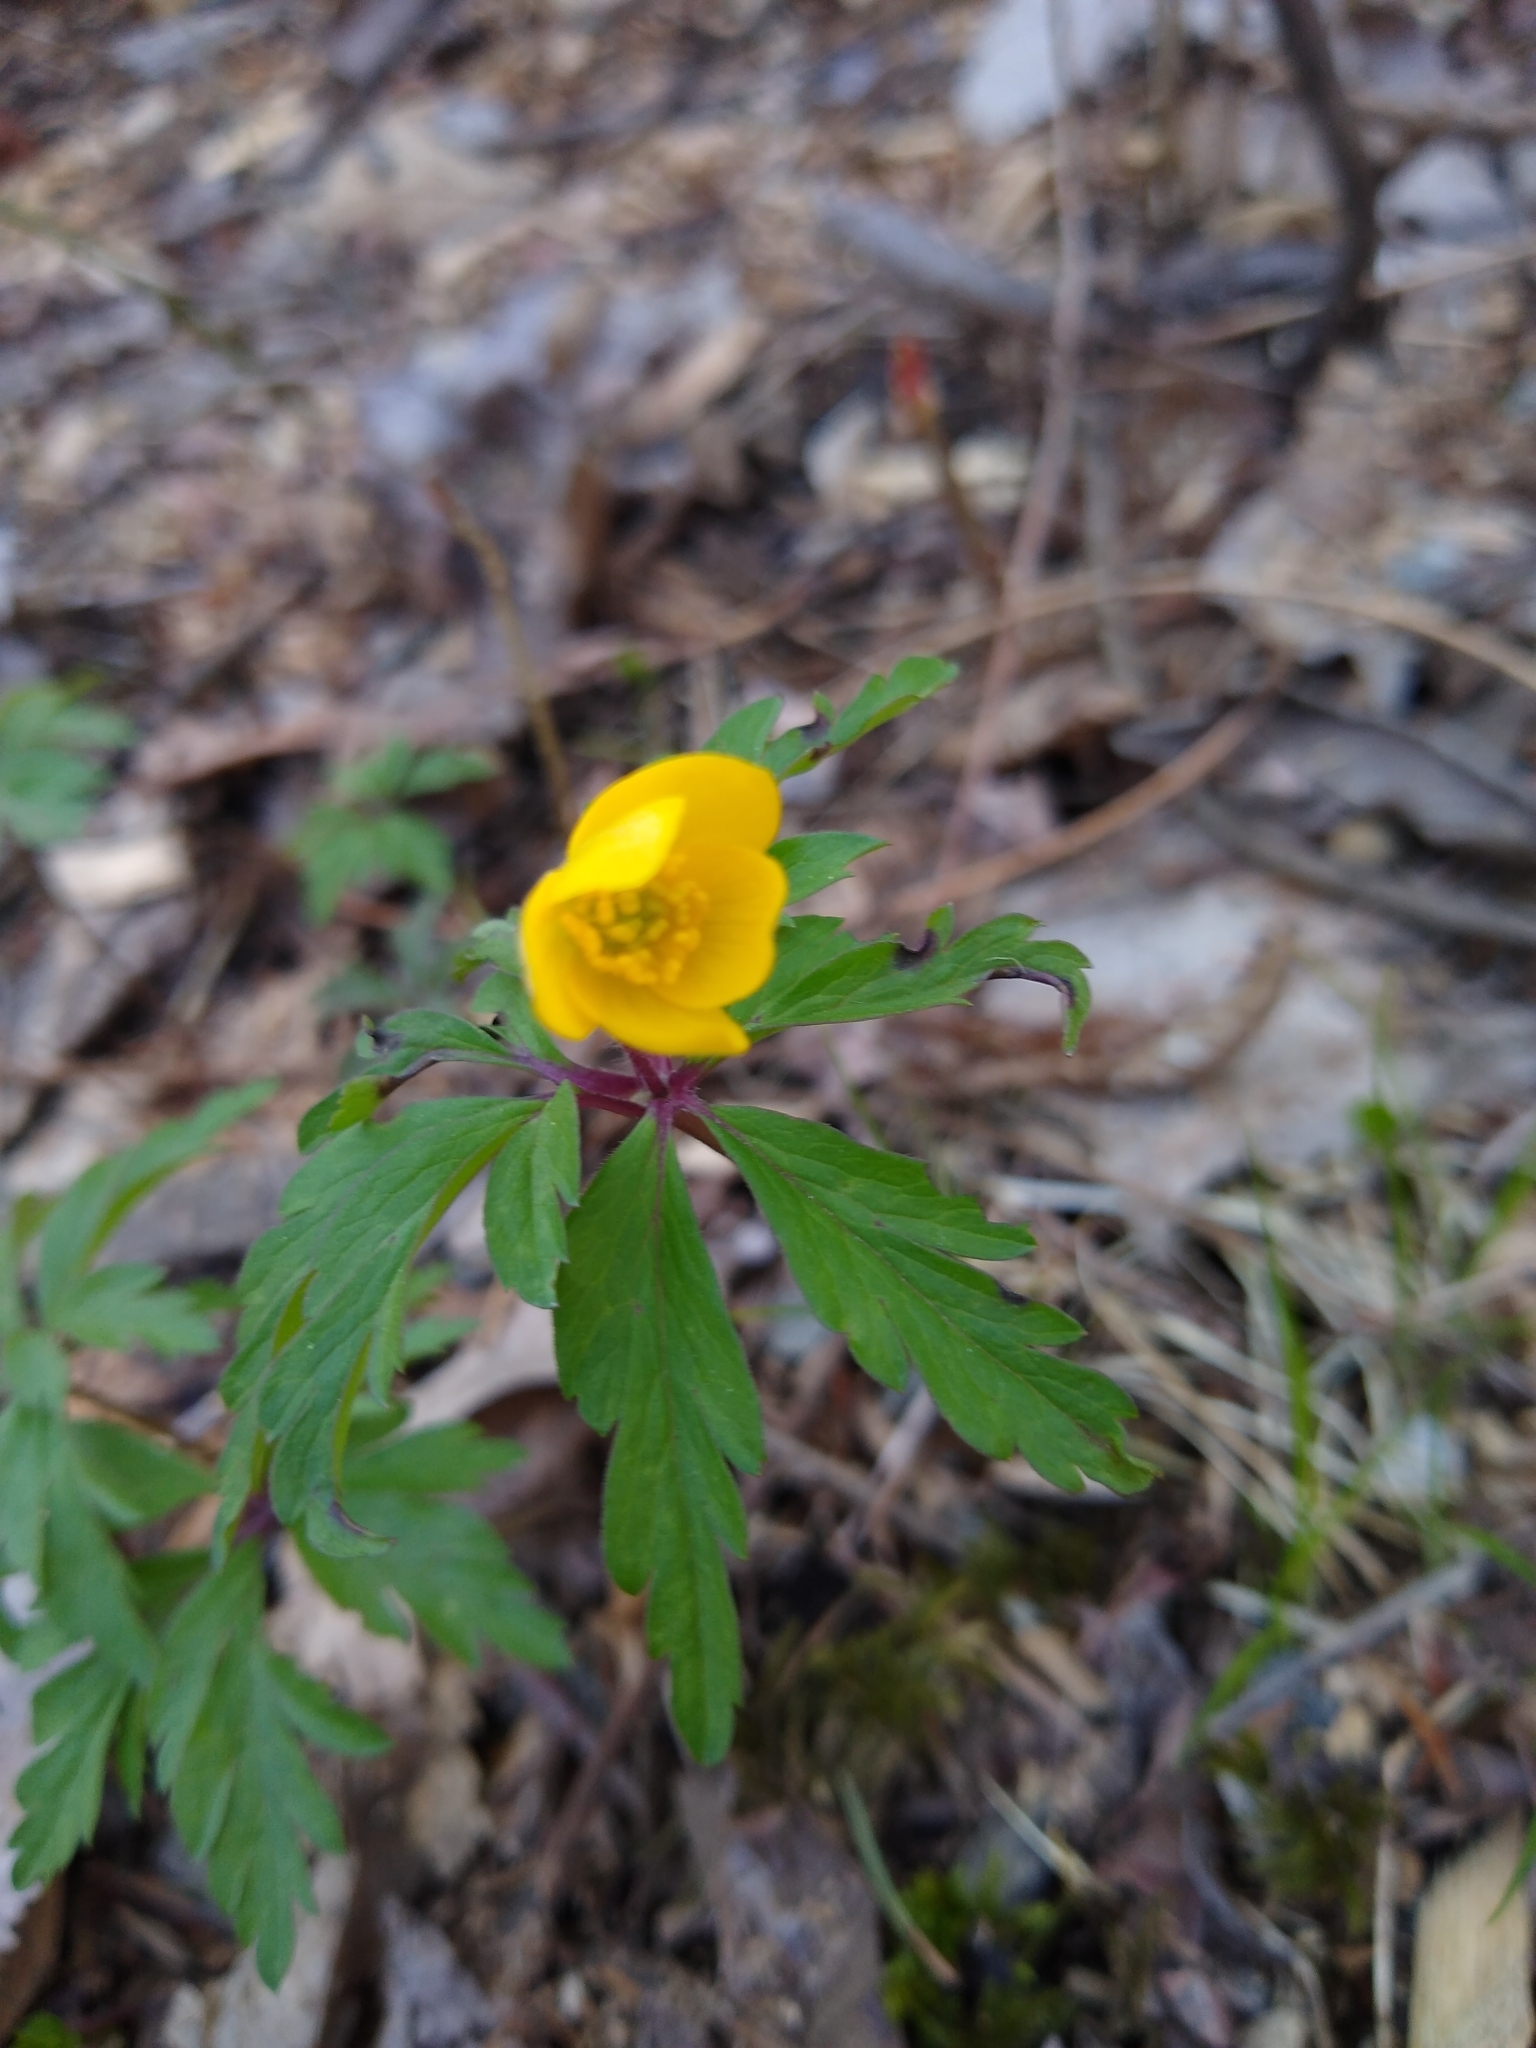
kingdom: Plantae
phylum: Tracheophyta
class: Magnoliopsida
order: Ranunculales
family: Ranunculaceae
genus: Anemone
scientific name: Anemone ranunculoides
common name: Yellow anemone
